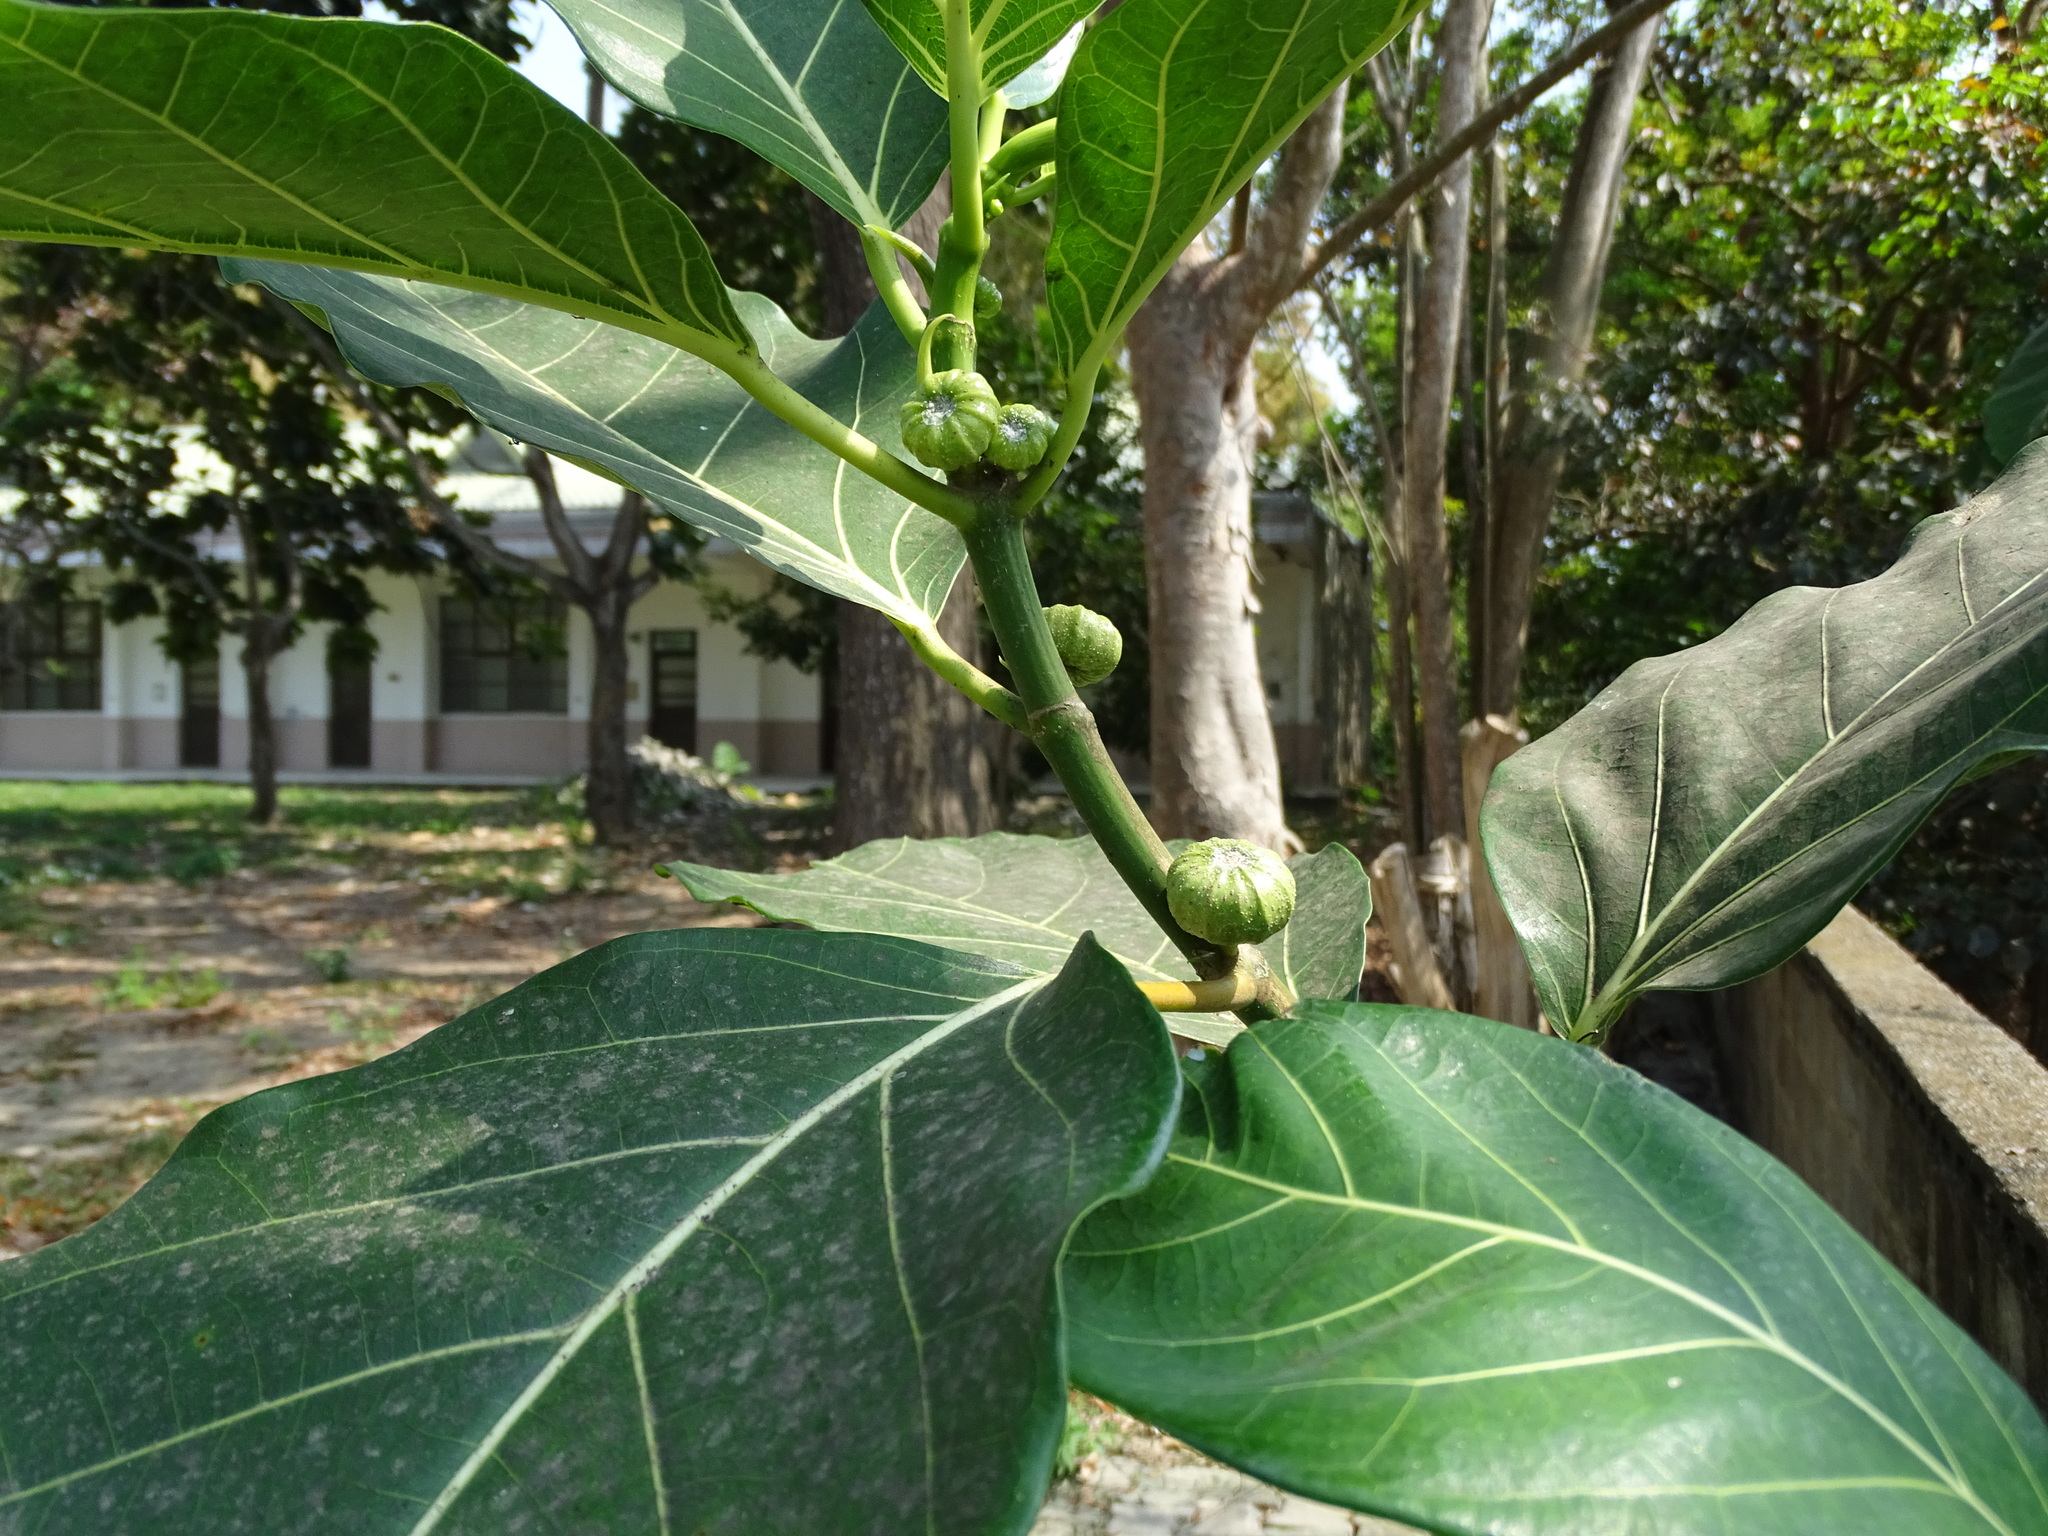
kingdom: Plantae
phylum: Tracheophyta
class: Magnoliopsida
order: Rosales
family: Moraceae
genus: Ficus
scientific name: Ficus septica
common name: Septic fig
